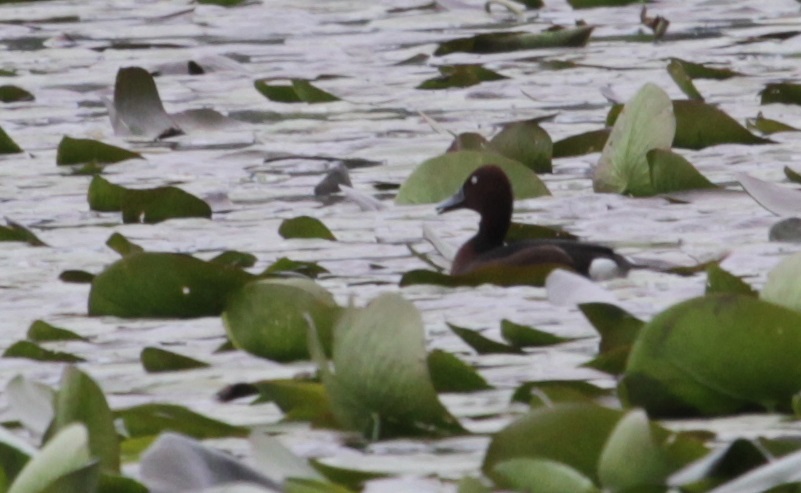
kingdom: Animalia
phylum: Chordata
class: Aves
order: Anseriformes
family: Anatidae
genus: Aythya
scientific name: Aythya nyroca
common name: Ferruginous duck
